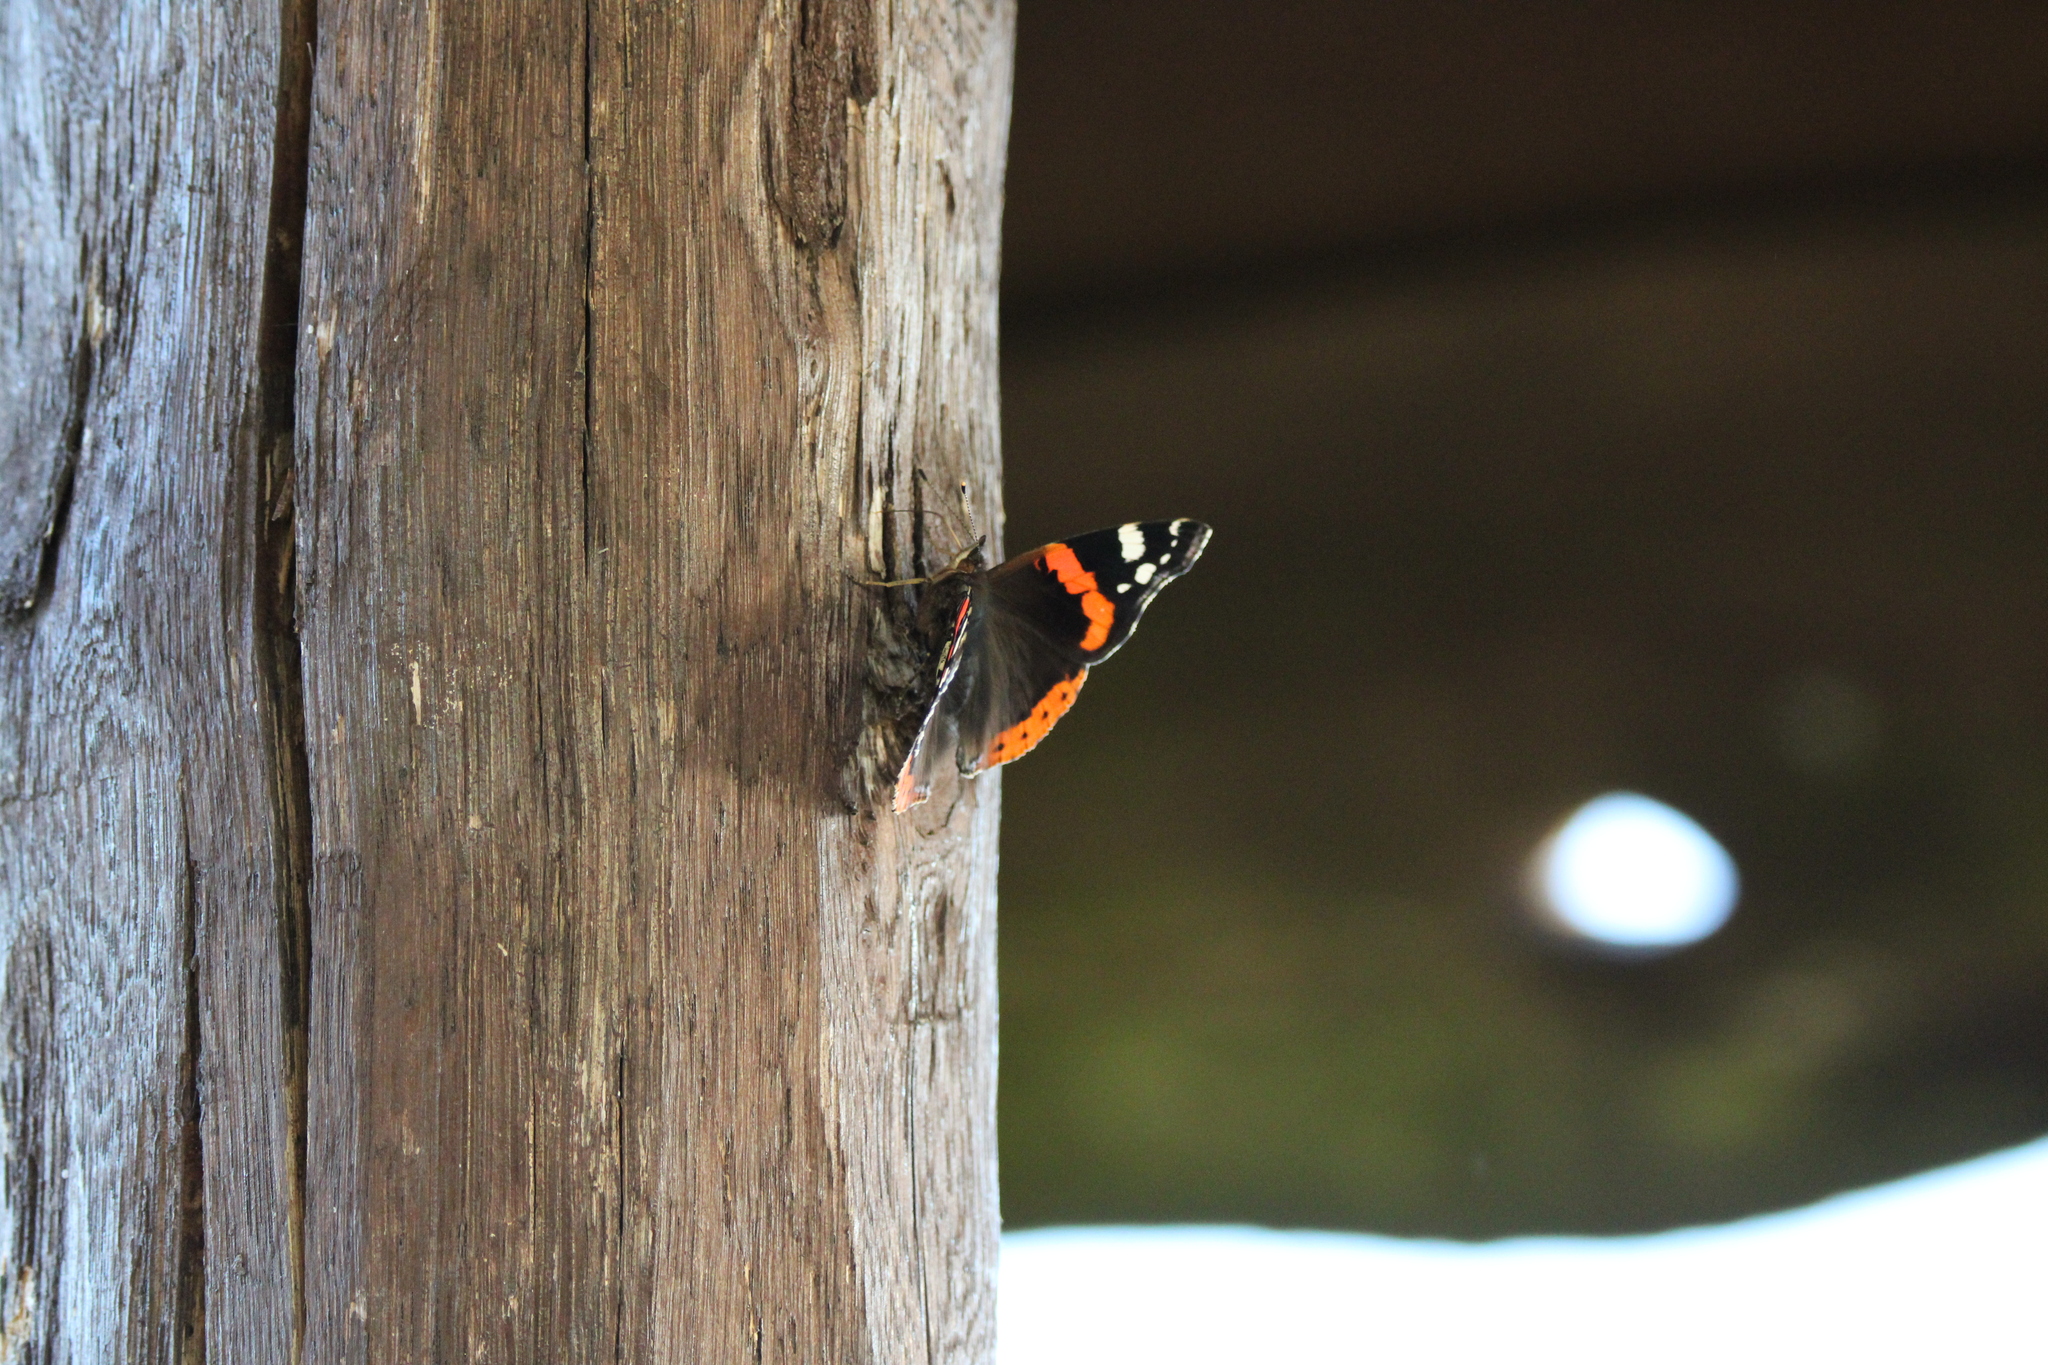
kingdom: Animalia
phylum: Arthropoda
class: Insecta
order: Lepidoptera
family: Nymphalidae
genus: Vanessa
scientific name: Vanessa atalanta
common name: Red admiral
